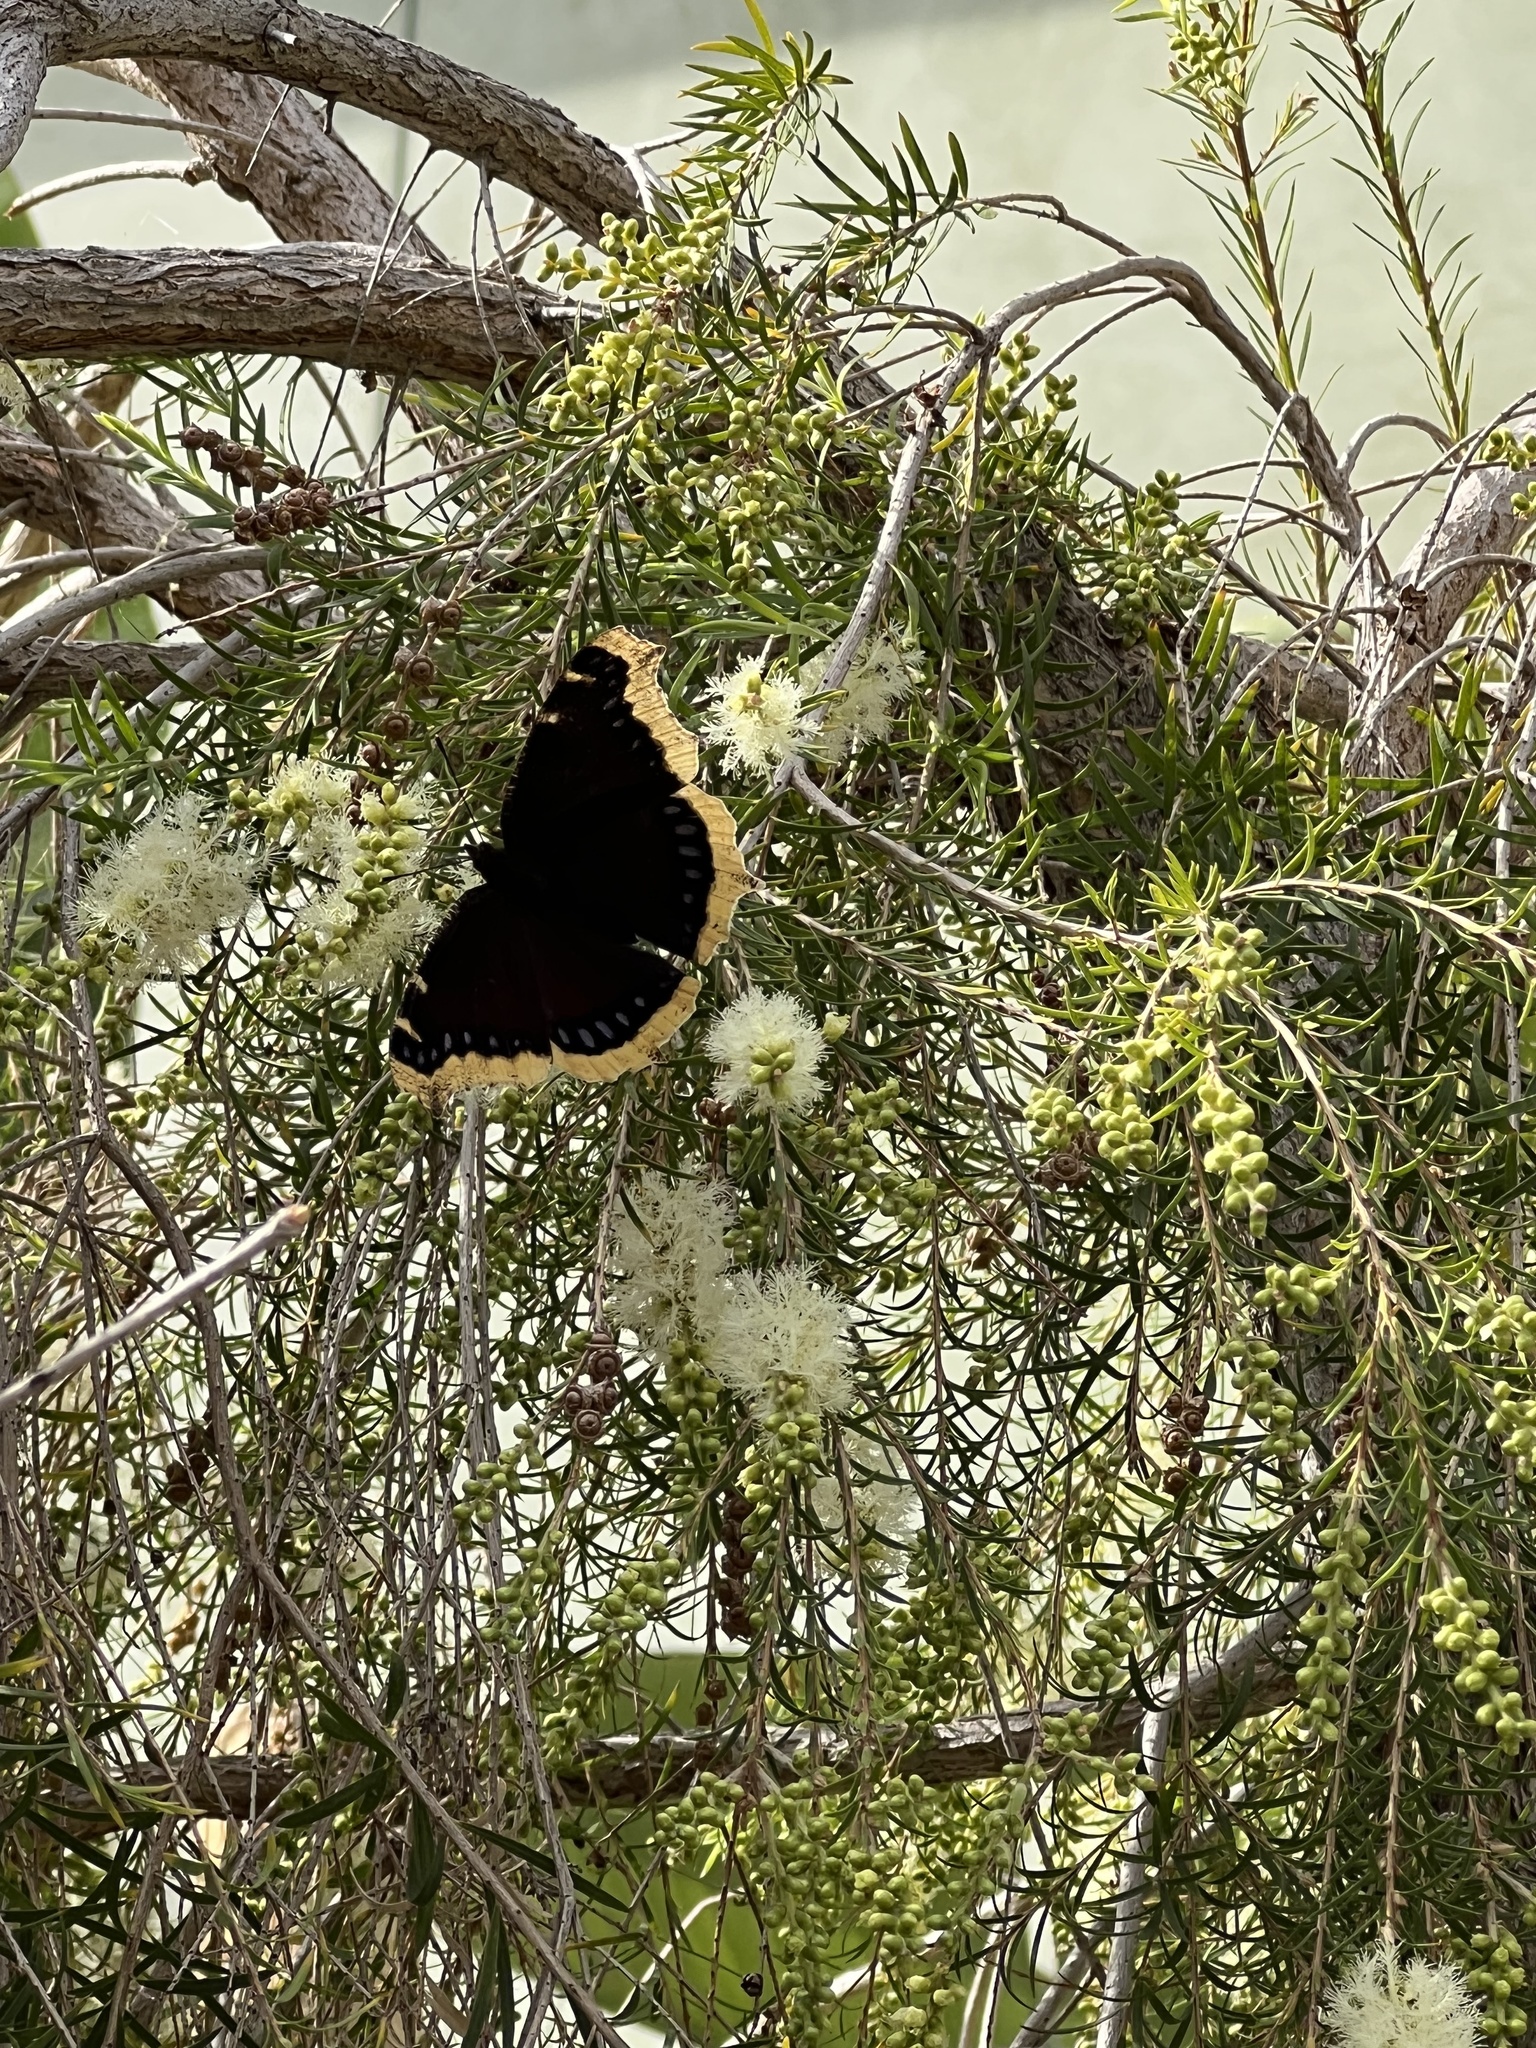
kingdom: Animalia
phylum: Arthropoda
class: Insecta
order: Lepidoptera
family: Nymphalidae
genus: Nymphalis
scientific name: Nymphalis antiopa
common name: Camberwell beauty
